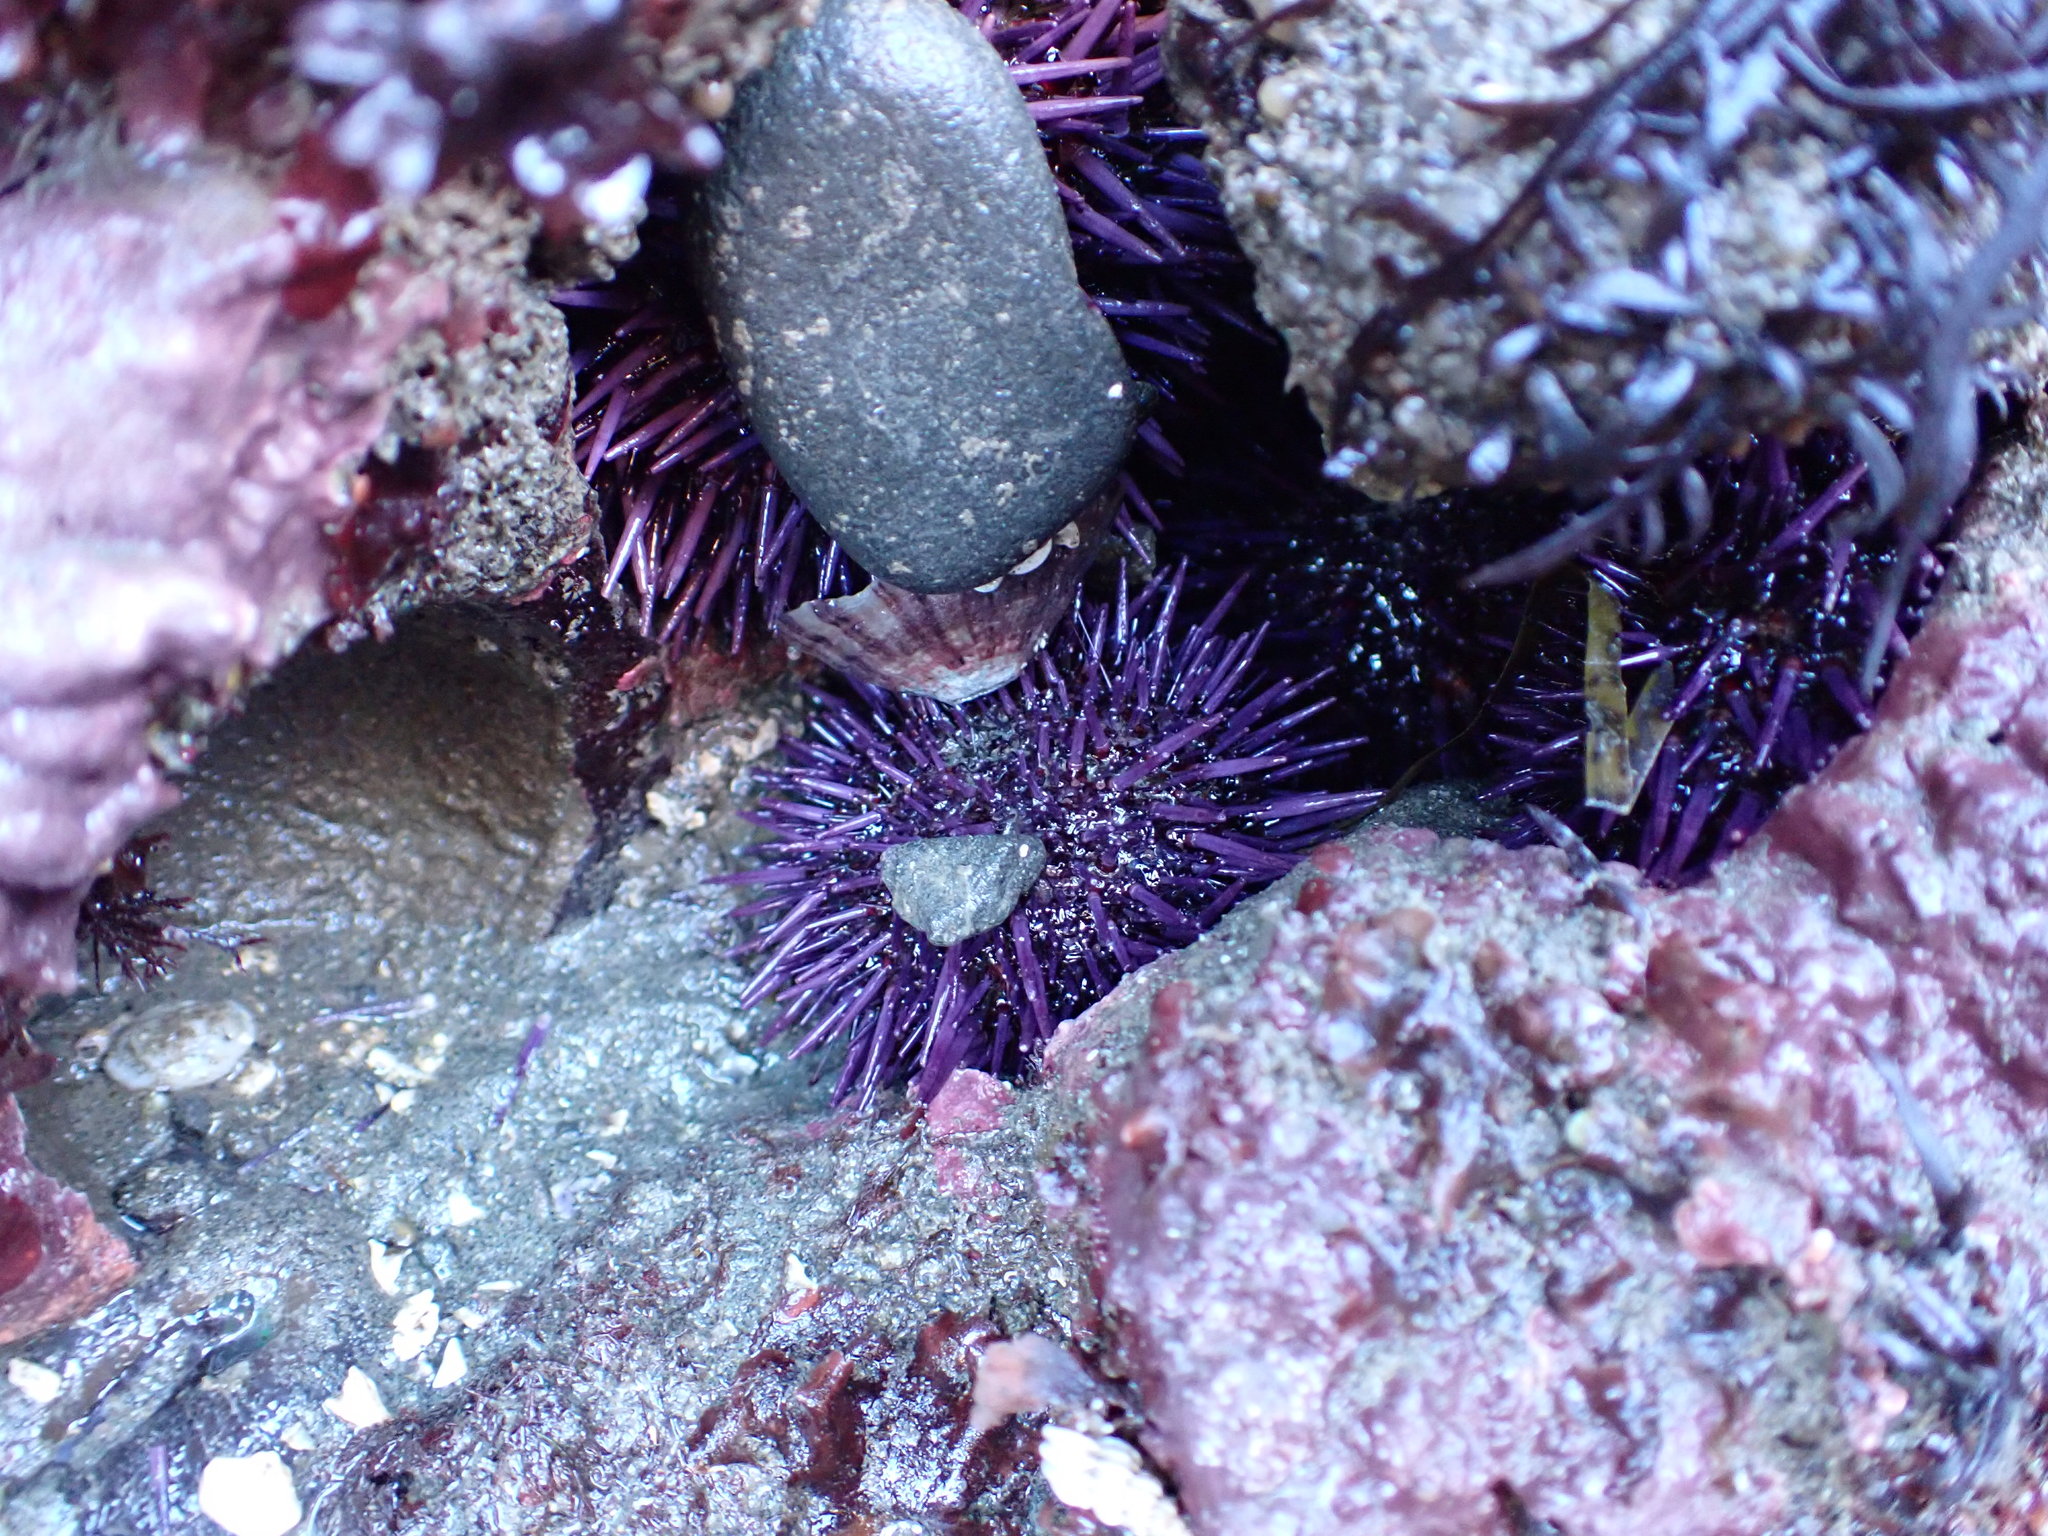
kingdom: Animalia
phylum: Echinodermata
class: Echinoidea
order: Camarodonta
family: Strongylocentrotidae
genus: Strongylocentrotus
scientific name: Strongylocentrotus purpuratus
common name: Purple sea urchin
